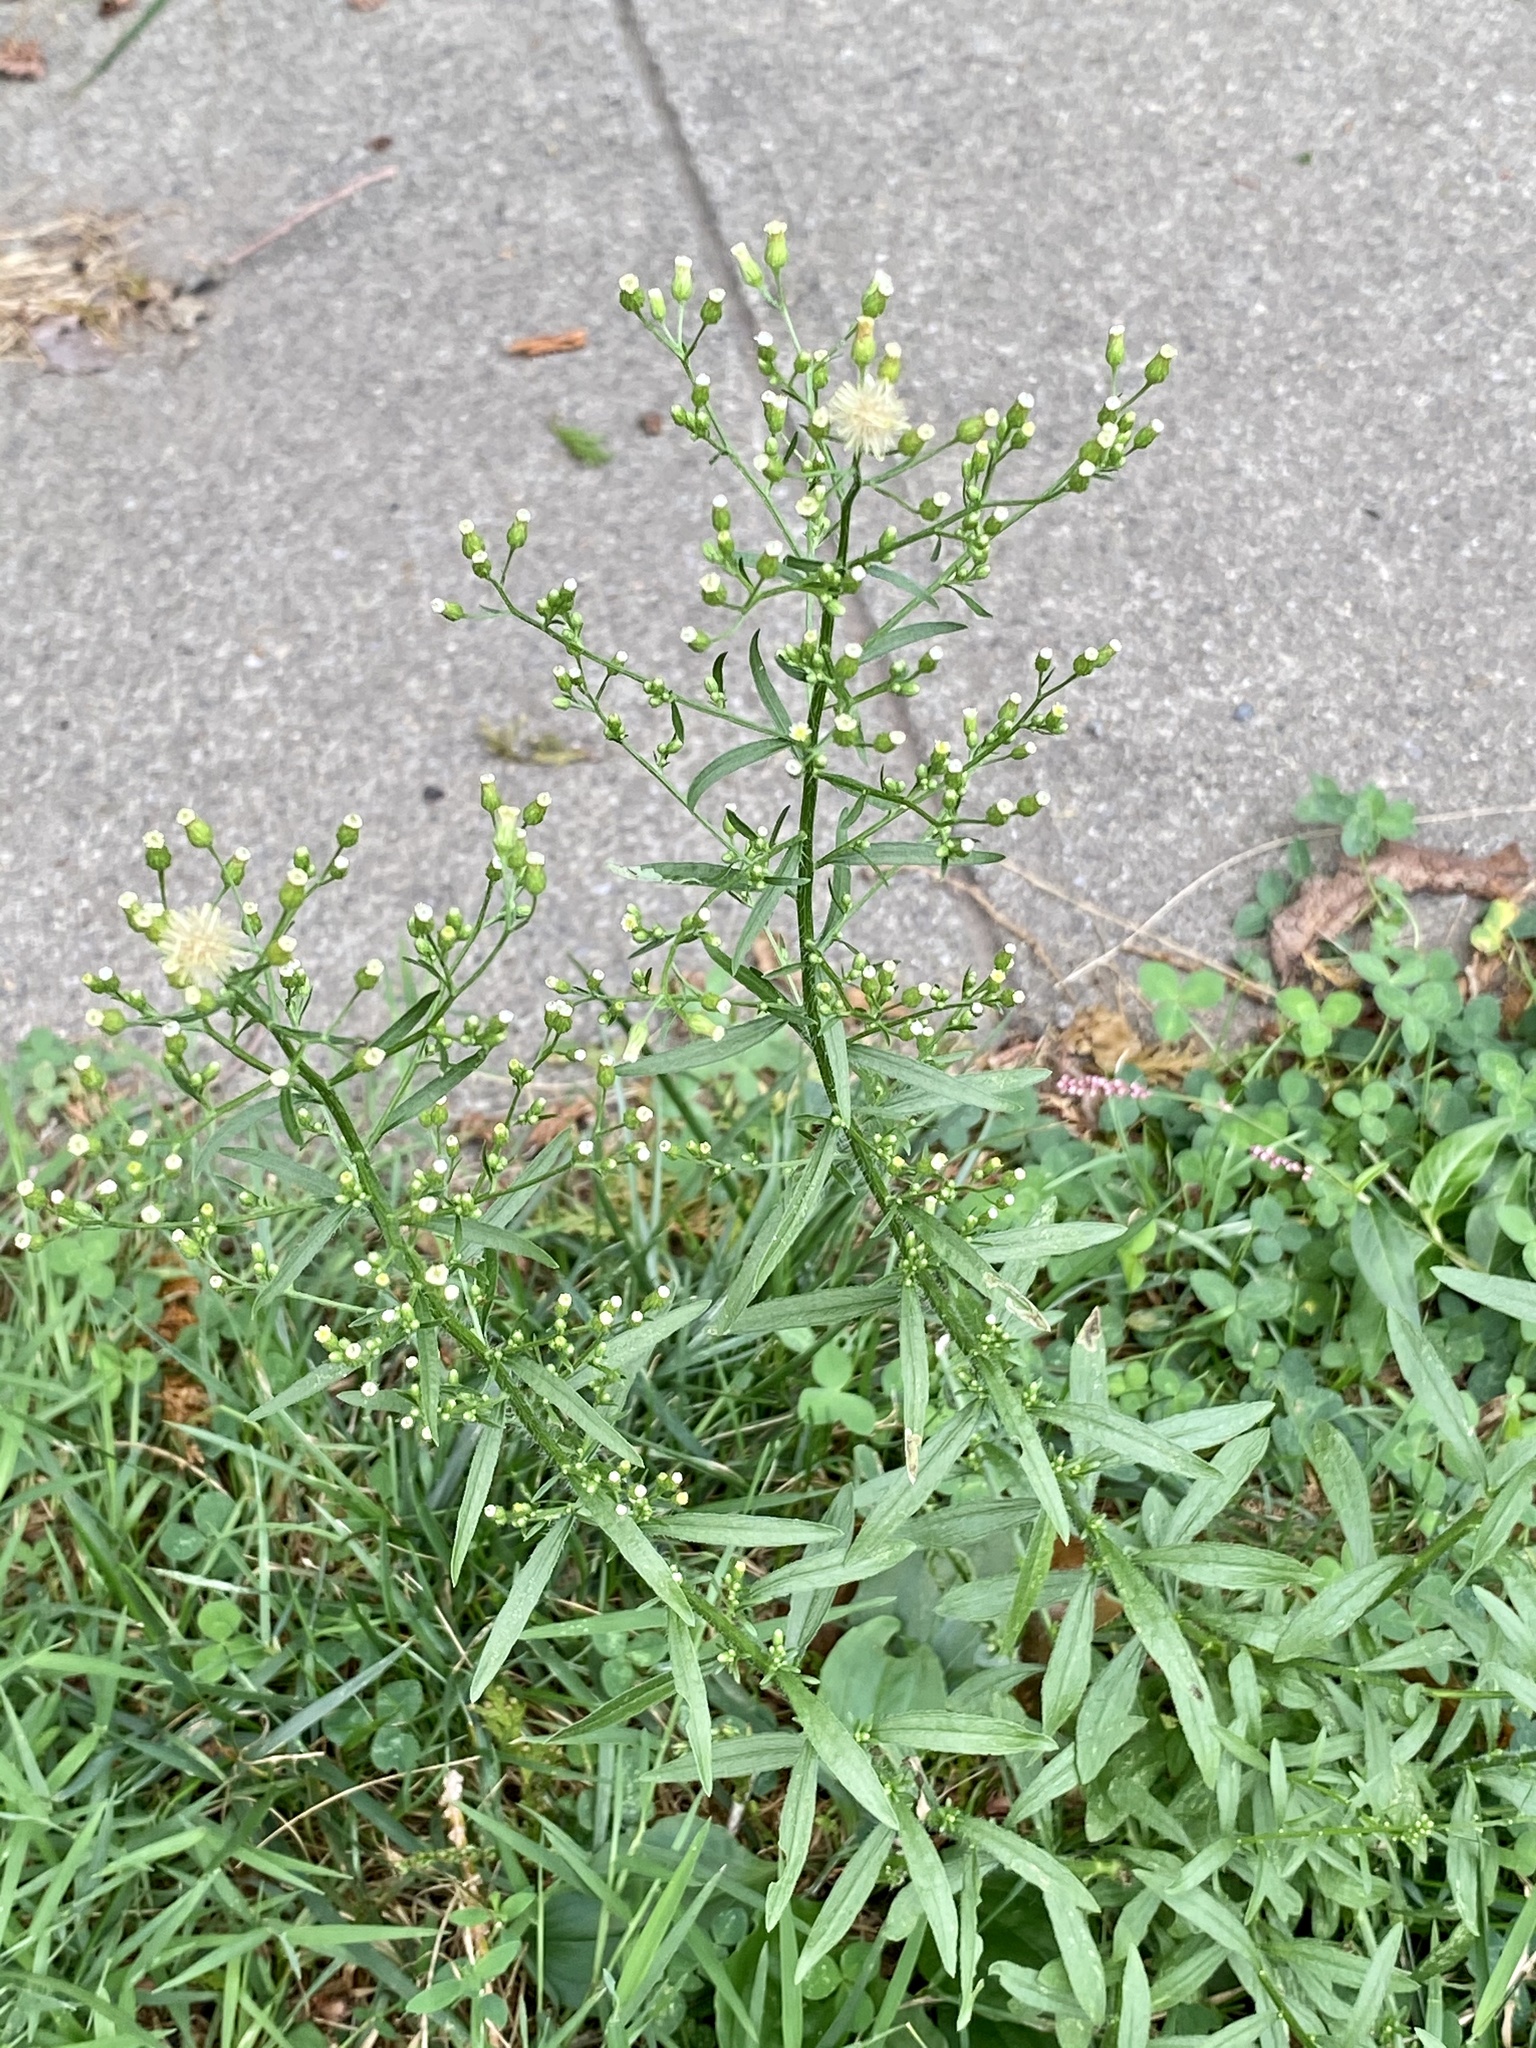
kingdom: Plantae
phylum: Tracheophyta
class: Magnoliopsida
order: Asterales
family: Asteraceae
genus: Erigeron
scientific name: Erigeron canadensis
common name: Canadian fleabane
